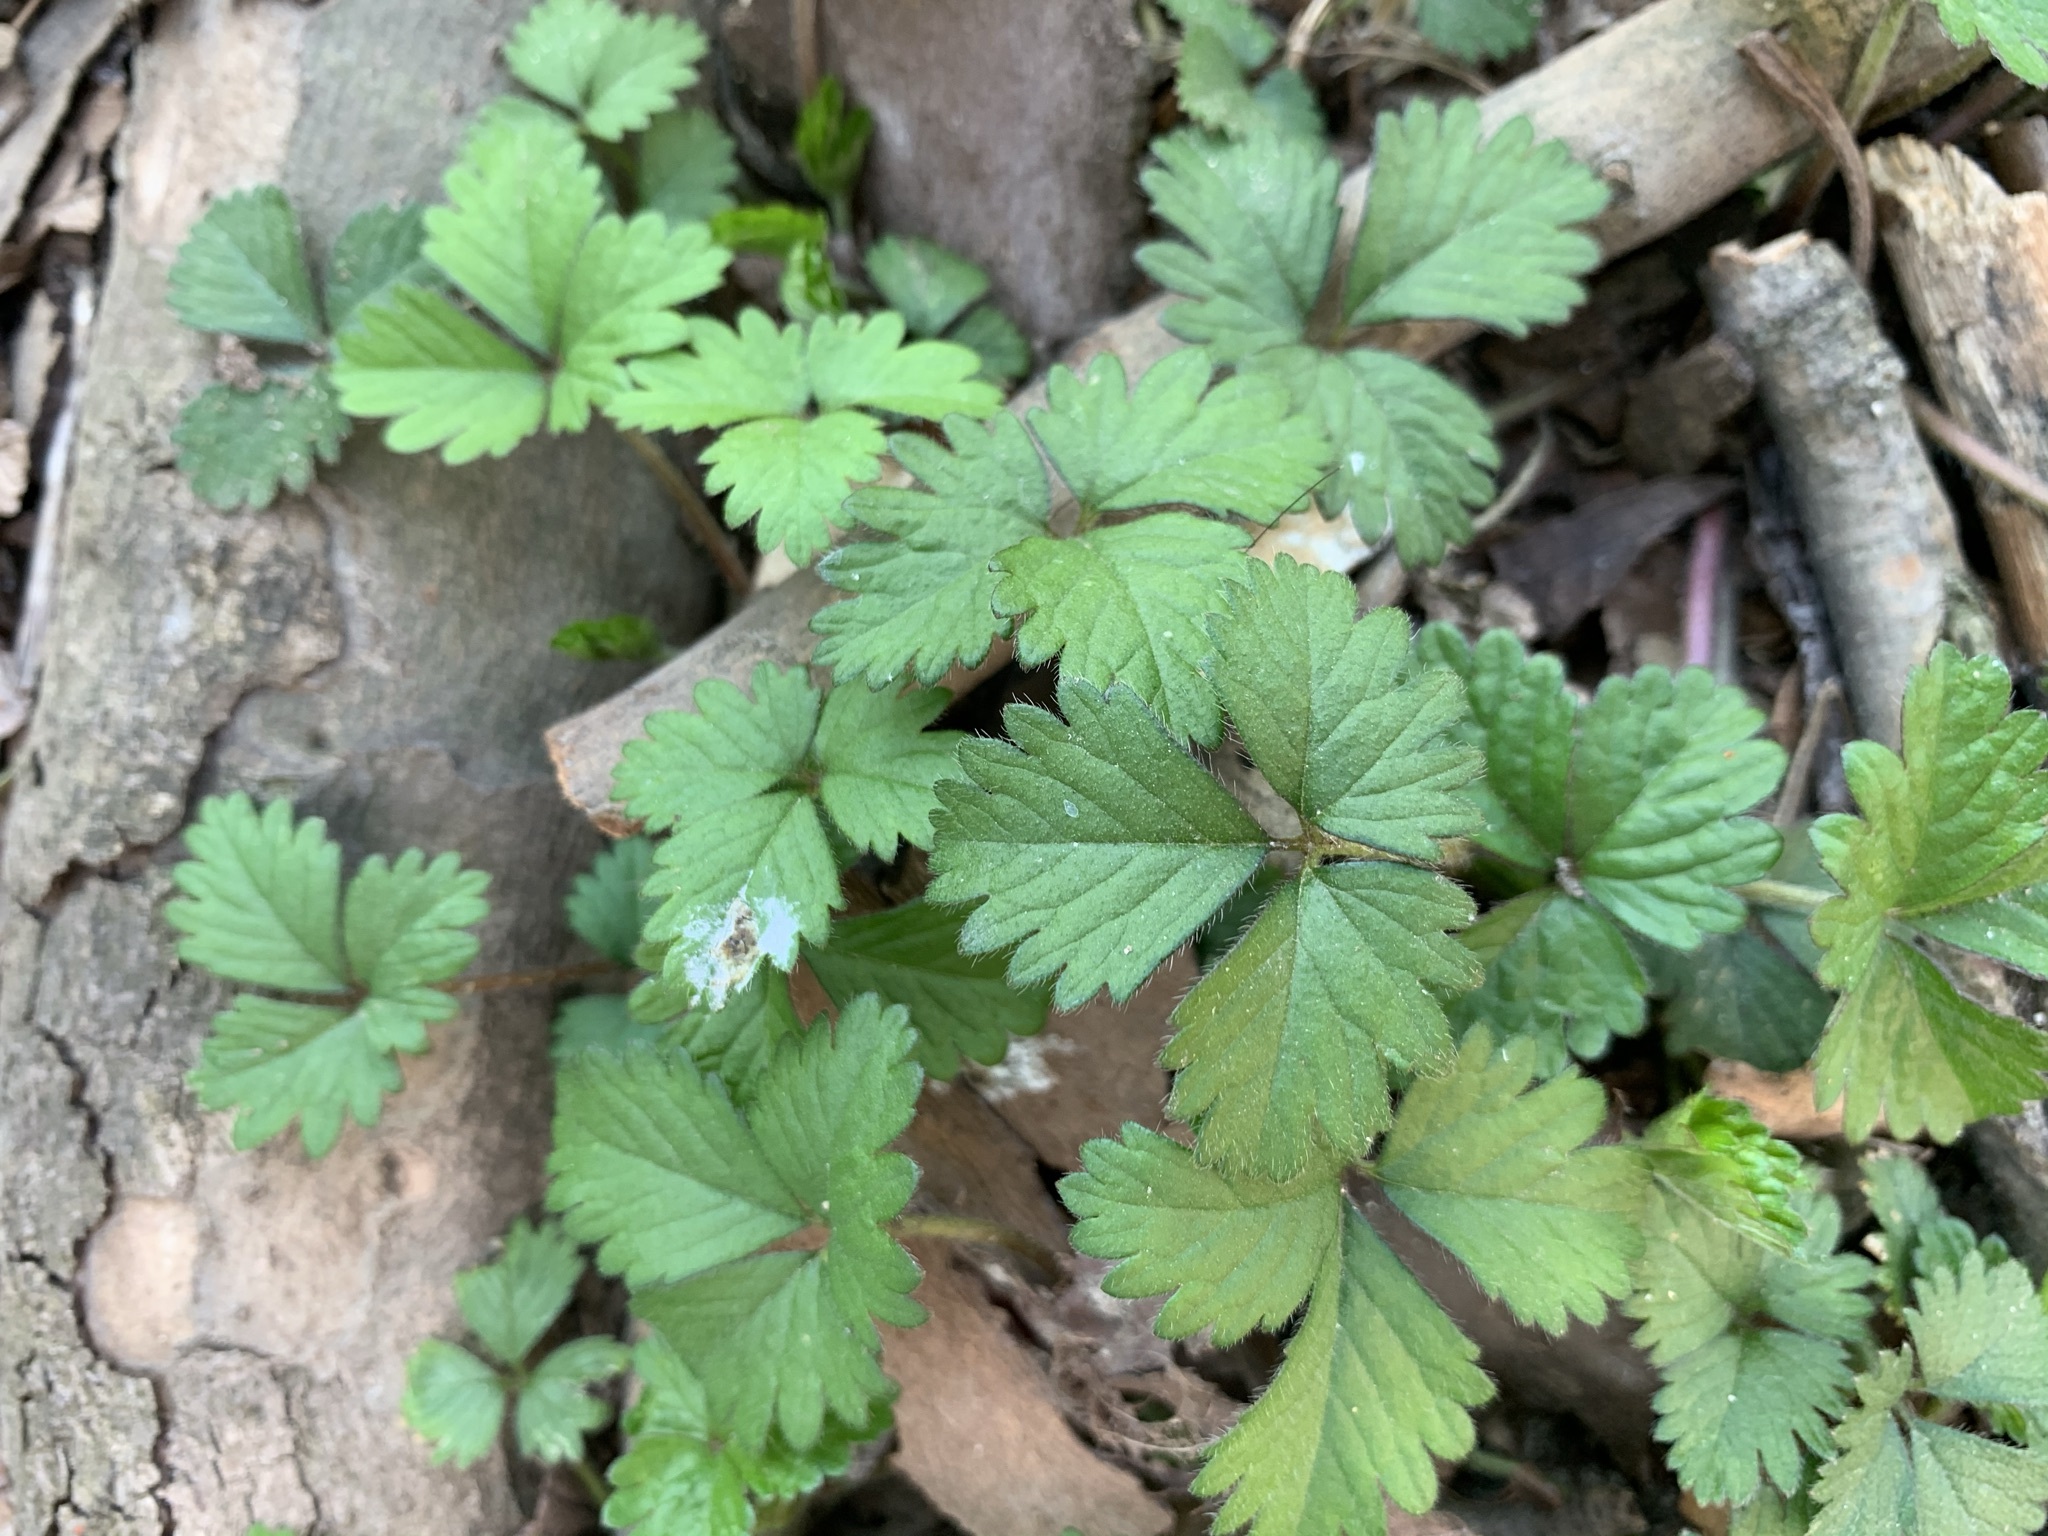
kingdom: Plantae
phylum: Tracheophyta
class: Magnoliopsida
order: Rosales
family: Rosaceae
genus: Potentilla
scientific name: Potentilla indica
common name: Yellow-flowered strawberry
